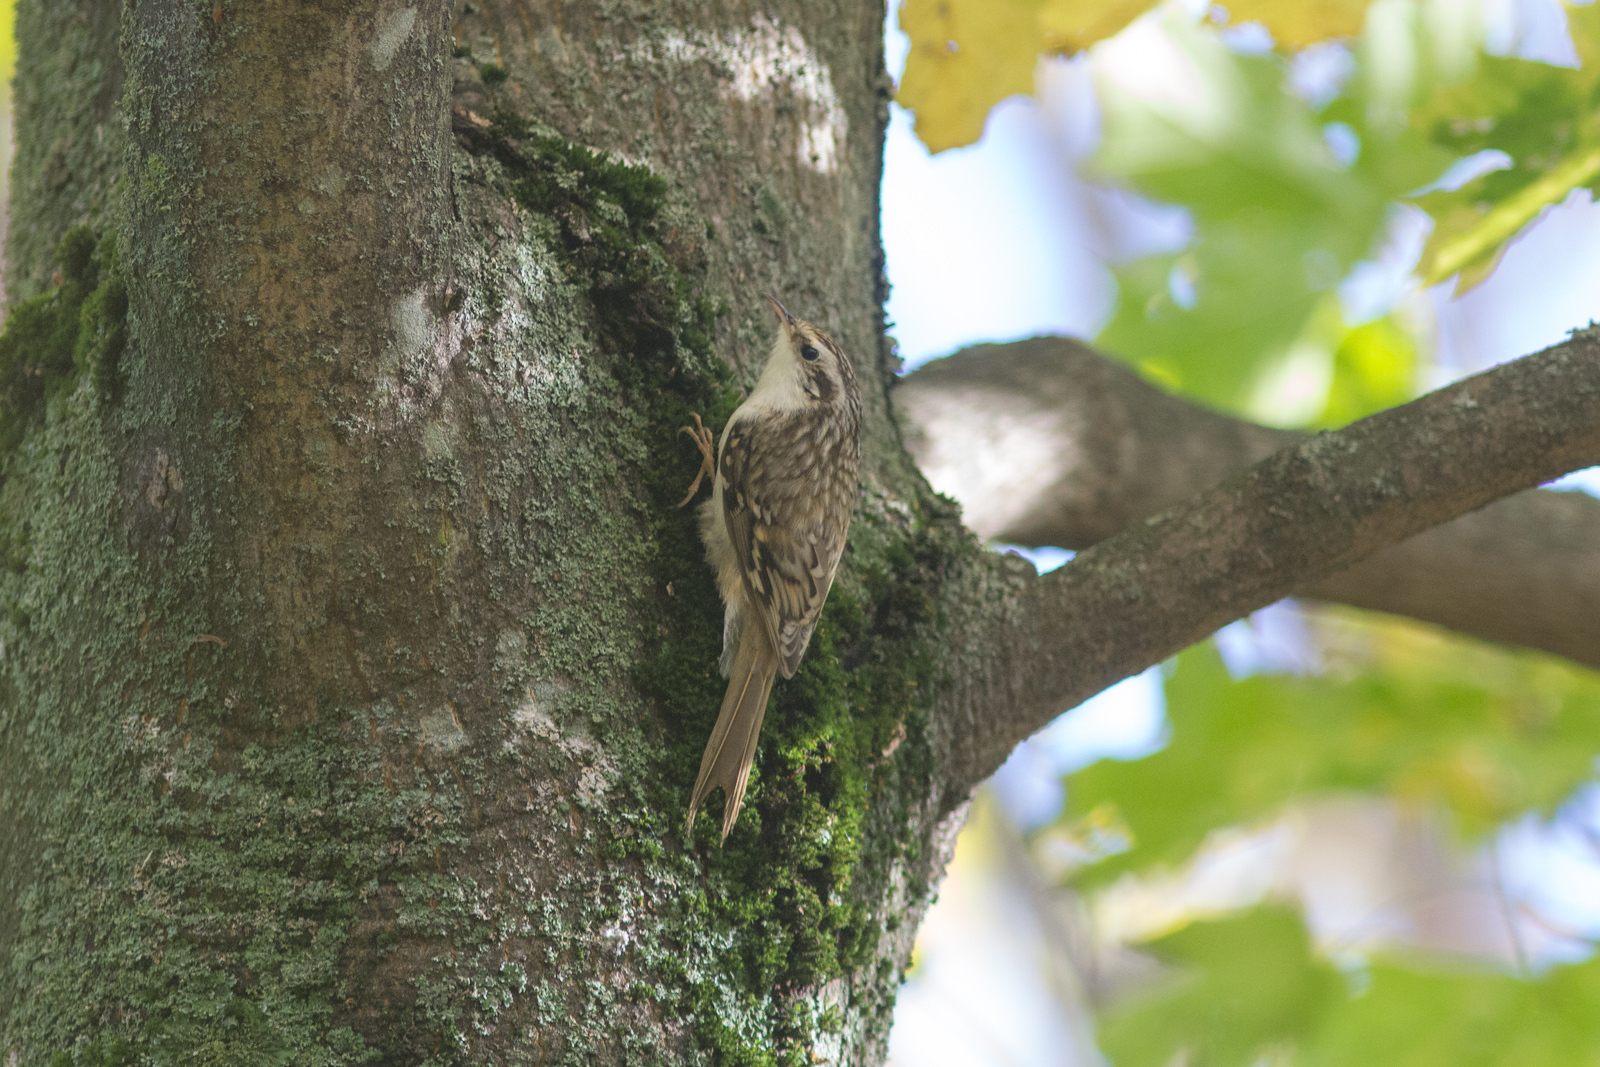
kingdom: Animalia
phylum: Chordata
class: Aves
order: Passeriformes
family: Certhiidae
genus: Certhia
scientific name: Certhia familiaris
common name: Eurasian treecreeper
